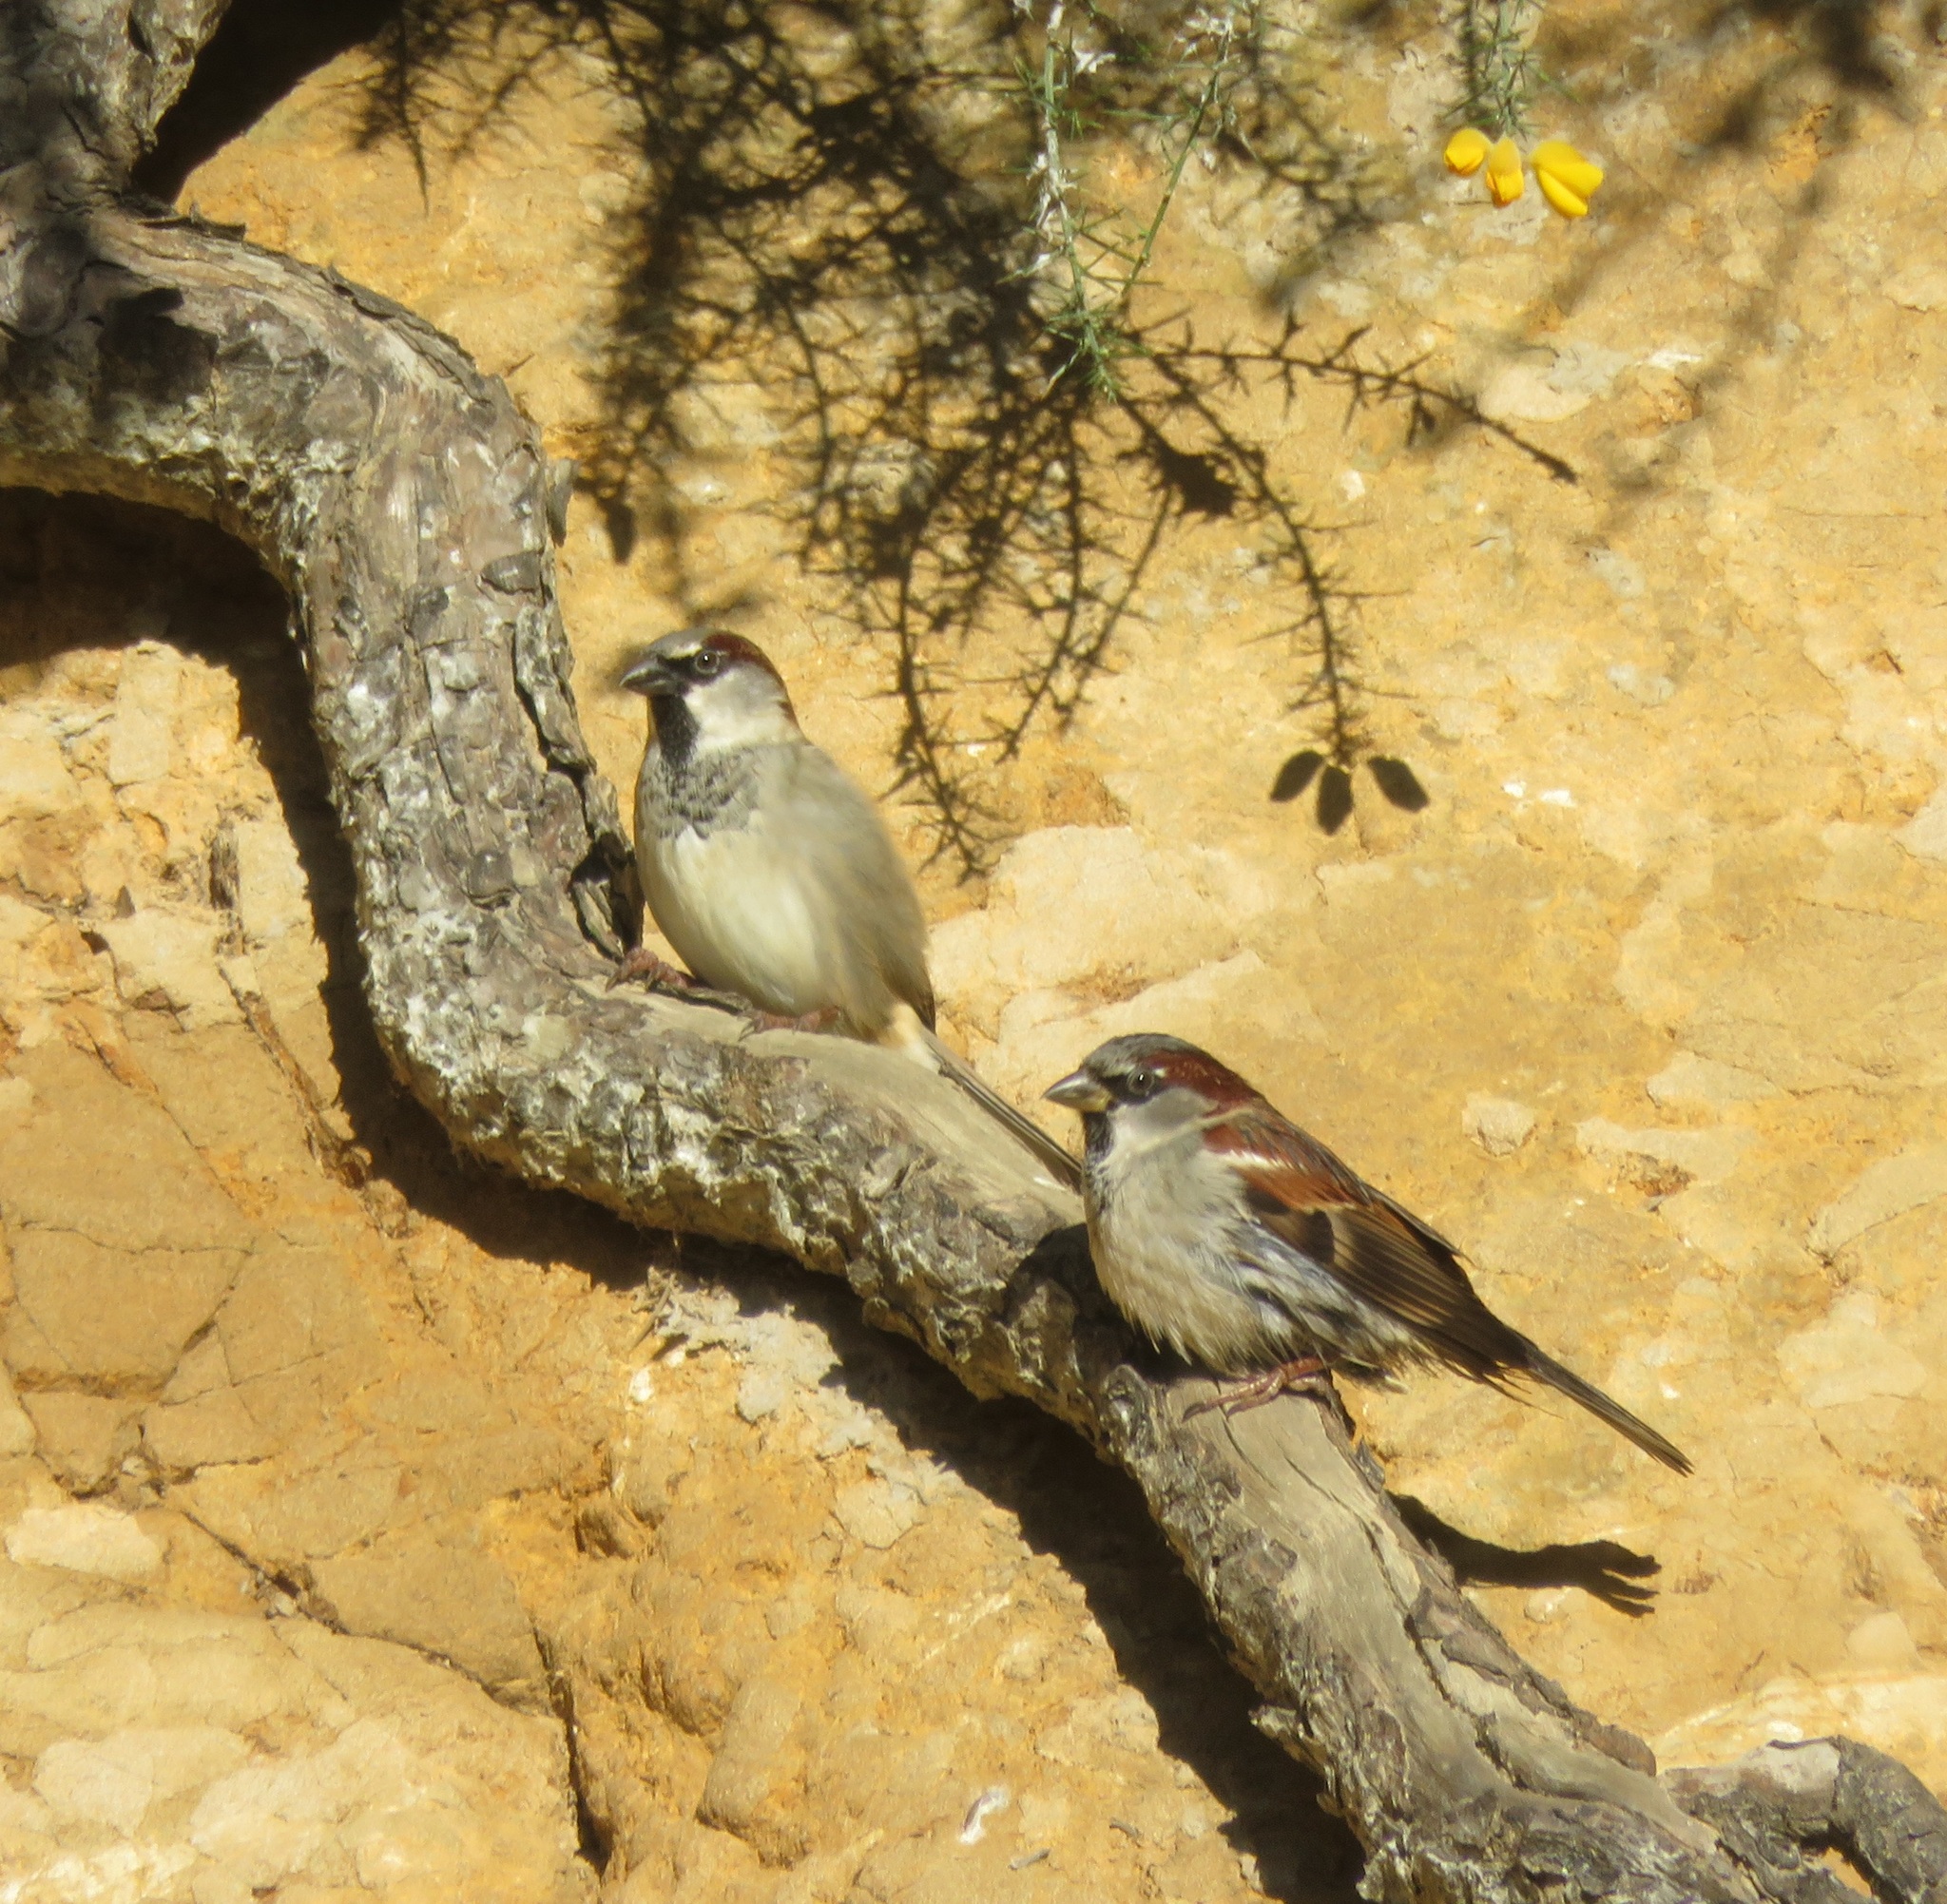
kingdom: Animalia
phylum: Chordata
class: Aves
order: Passeriformes
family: Passeridae
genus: Passer
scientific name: Passer domesticus
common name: House sparrow
